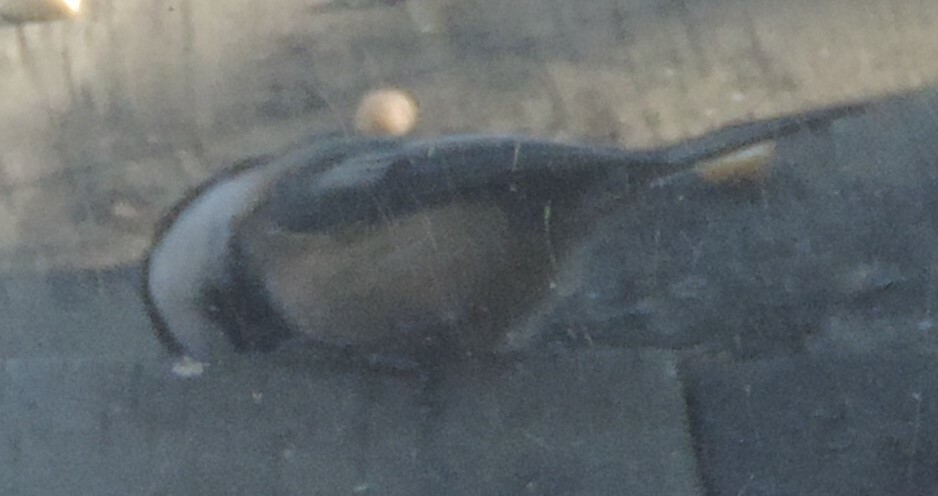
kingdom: Animalia
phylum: Chordata
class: Aves
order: Passeriformes
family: Paridae
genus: Poecile
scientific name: Poecile atricapillus
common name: Black-capped chickadee
